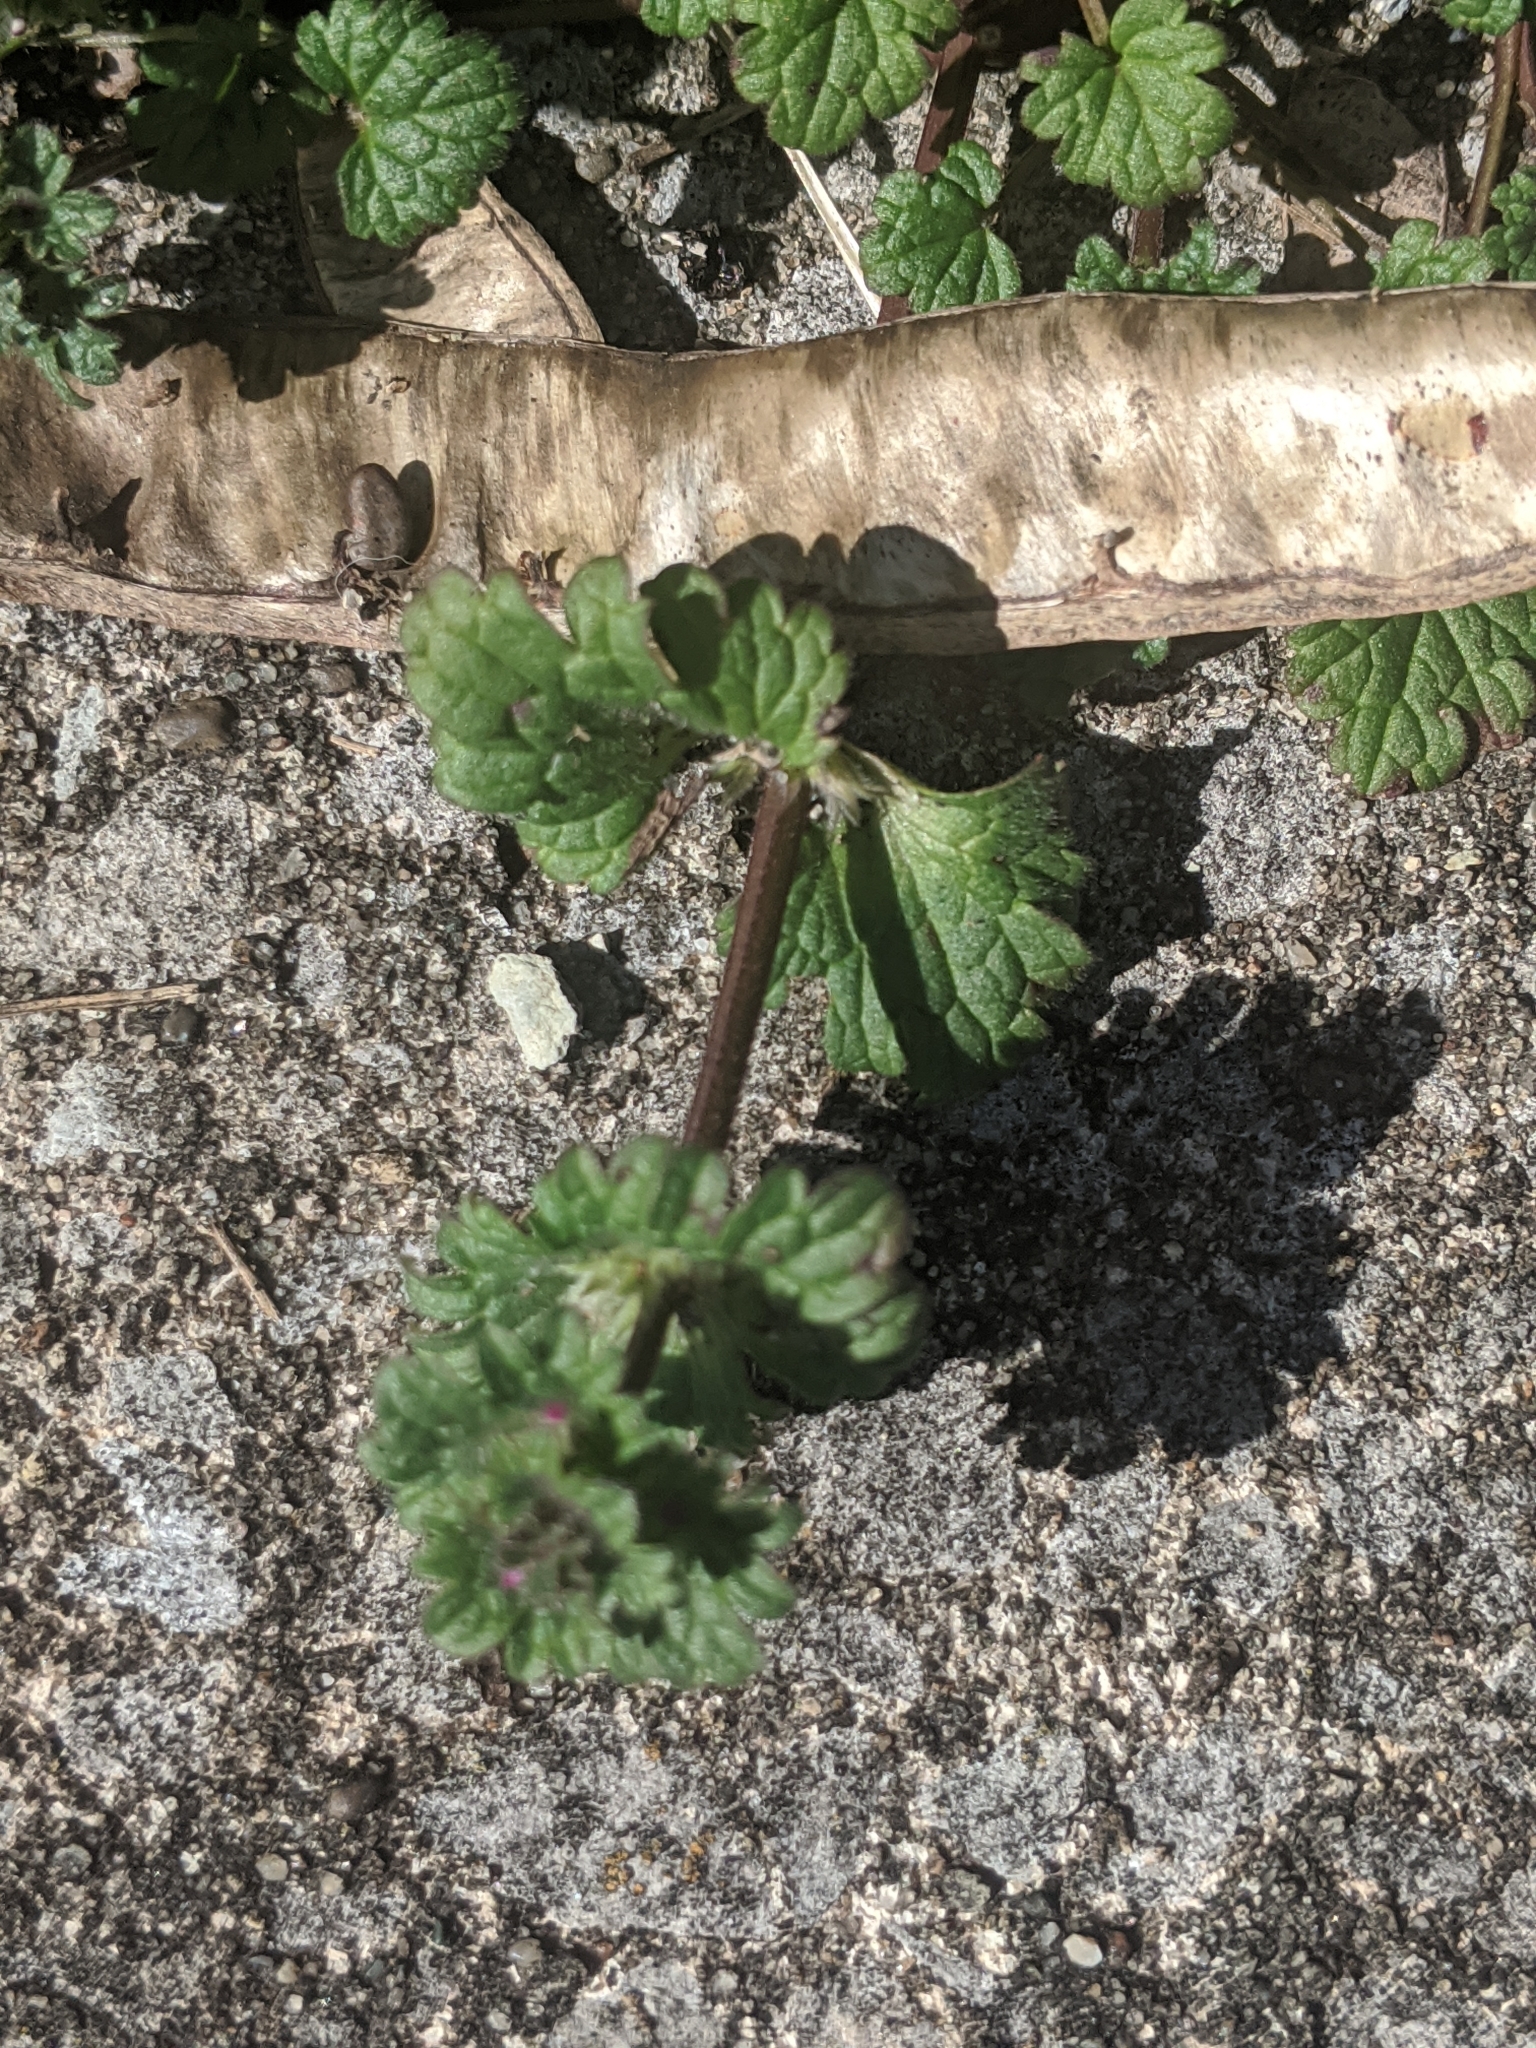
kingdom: Plantae
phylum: Tracheophyta
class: Magnoliopsida
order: Lamiales
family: Lamiaceae
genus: Lamium
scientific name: Lamium amplexicaule
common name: Henbit dead-nettle
